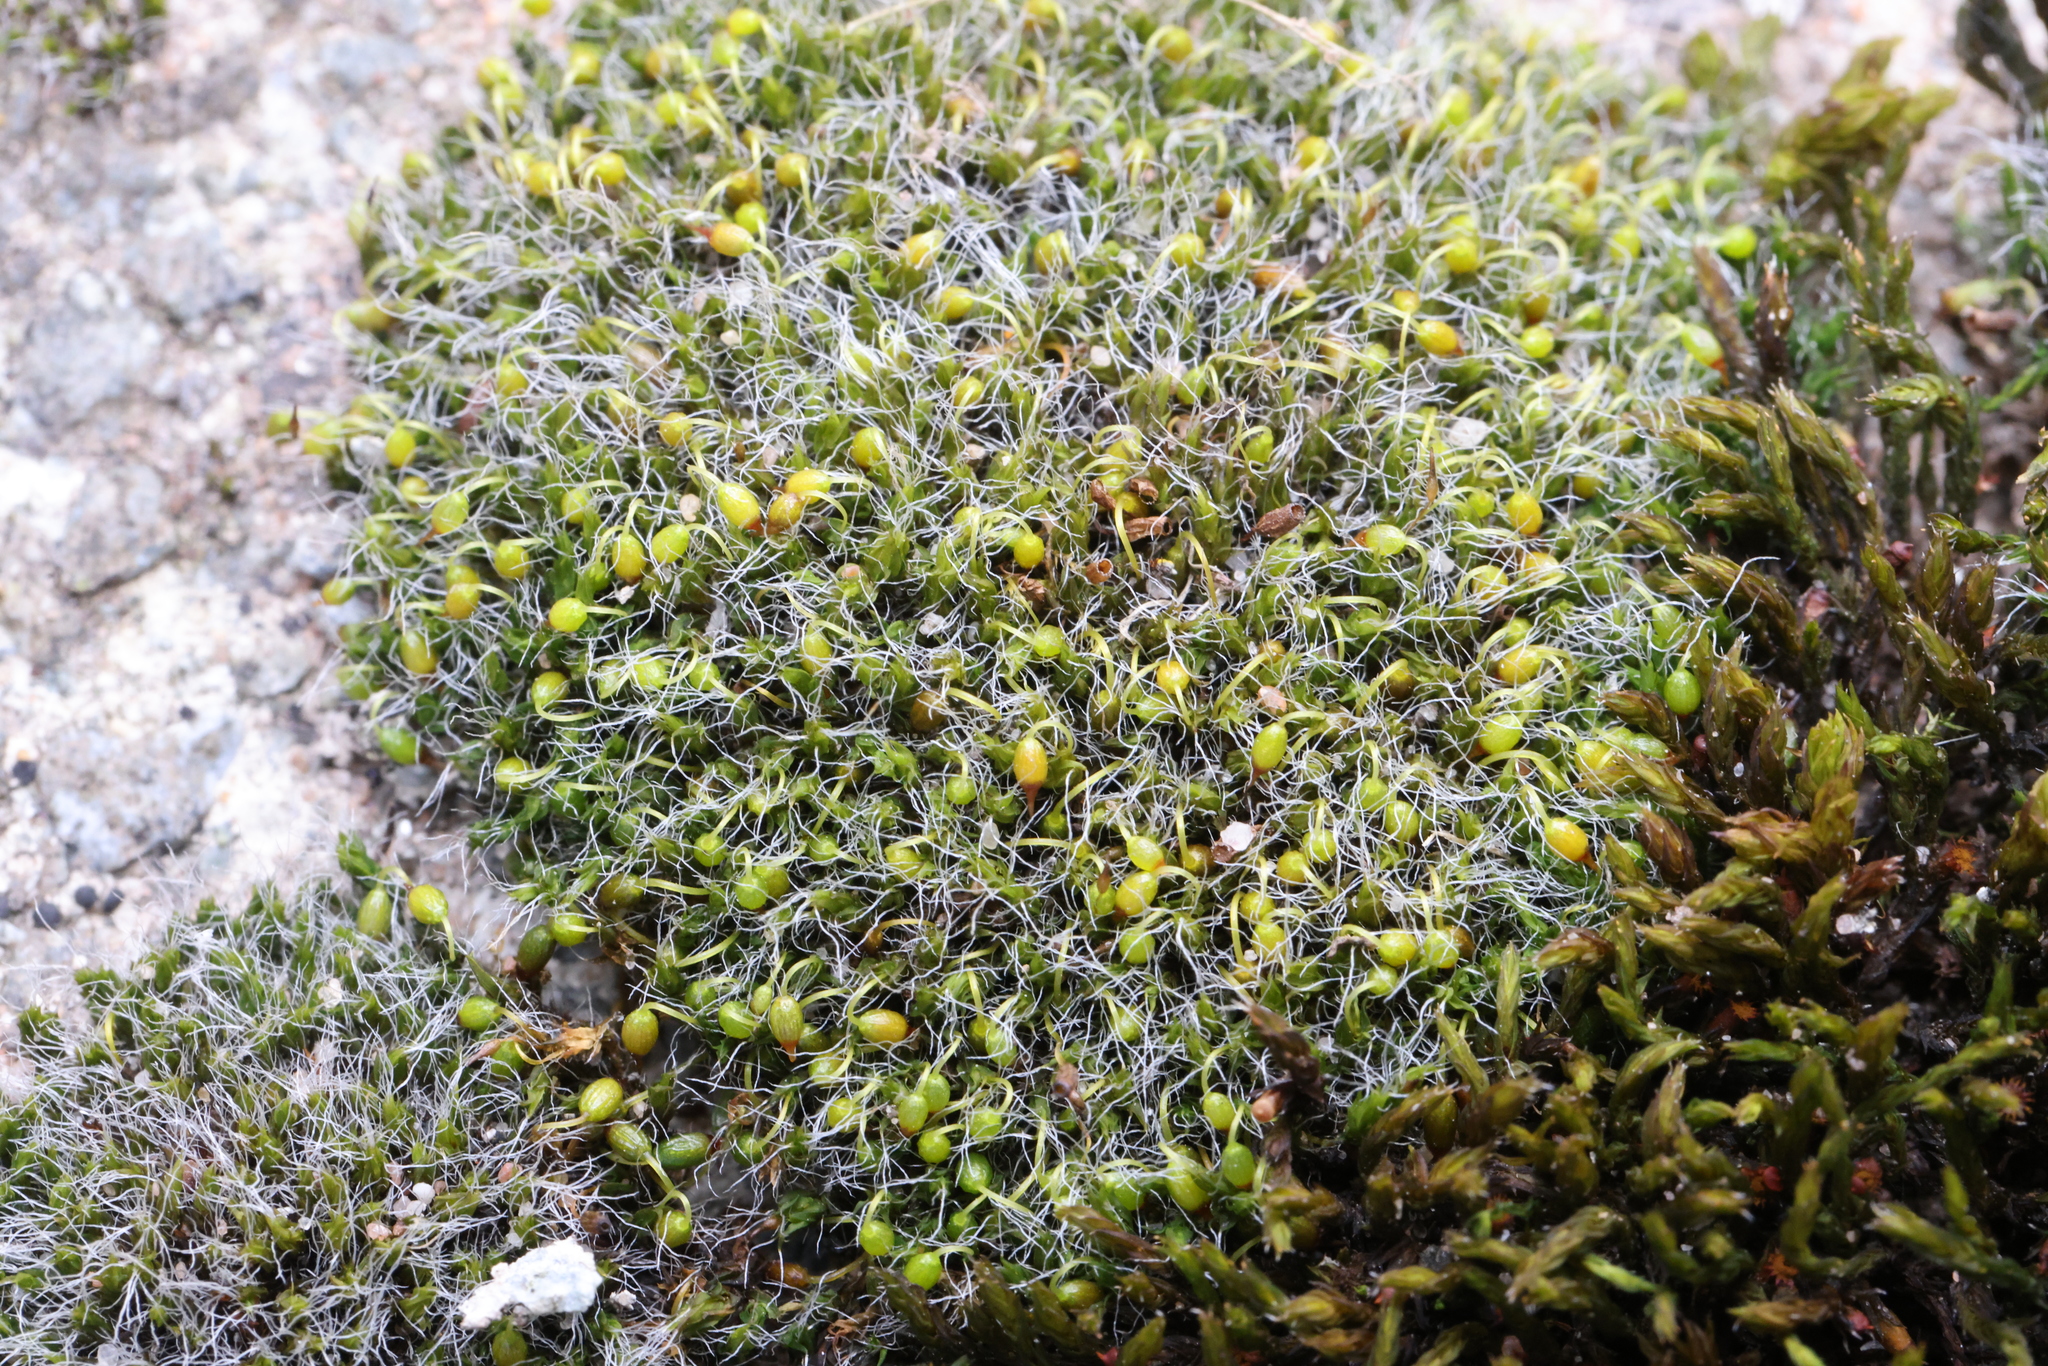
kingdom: Plantae
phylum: Bryophyta
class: Bryopsida
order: Grimmiales
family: Grimmiaceae
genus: Grimmia
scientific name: Grimmia pulvinata
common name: Grey-cushioned grimmia
